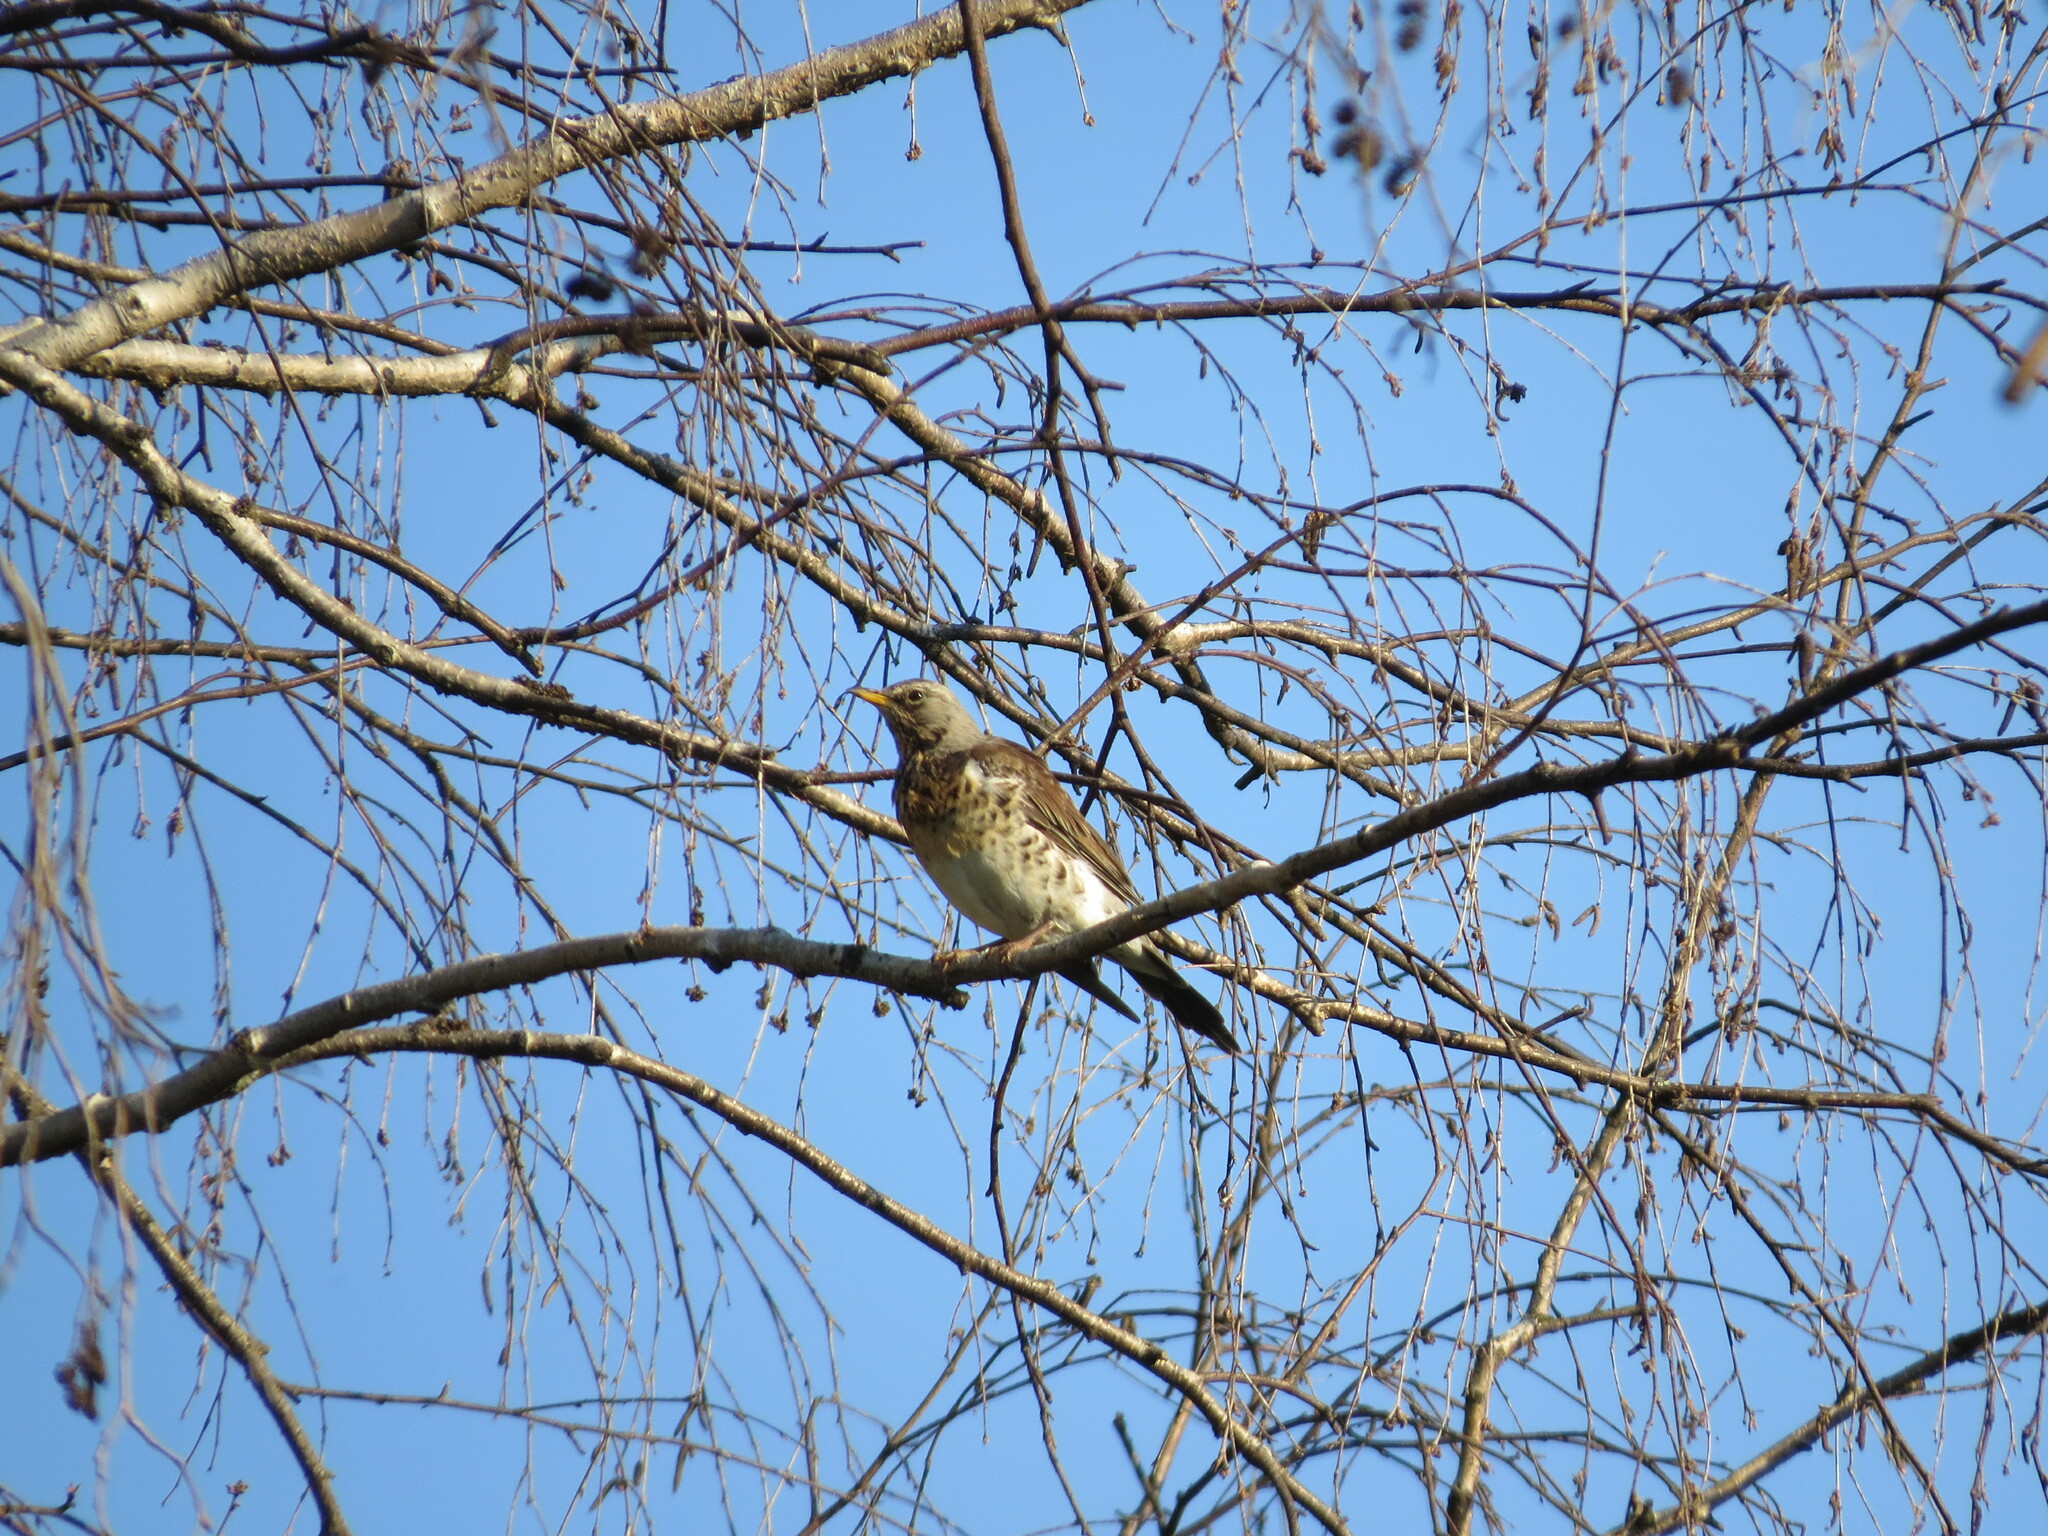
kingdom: Animalia
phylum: Chordata
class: Aves
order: Passeriformes
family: Turdidae
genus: Turdus
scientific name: Turdus pilaris
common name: Fieldfare
